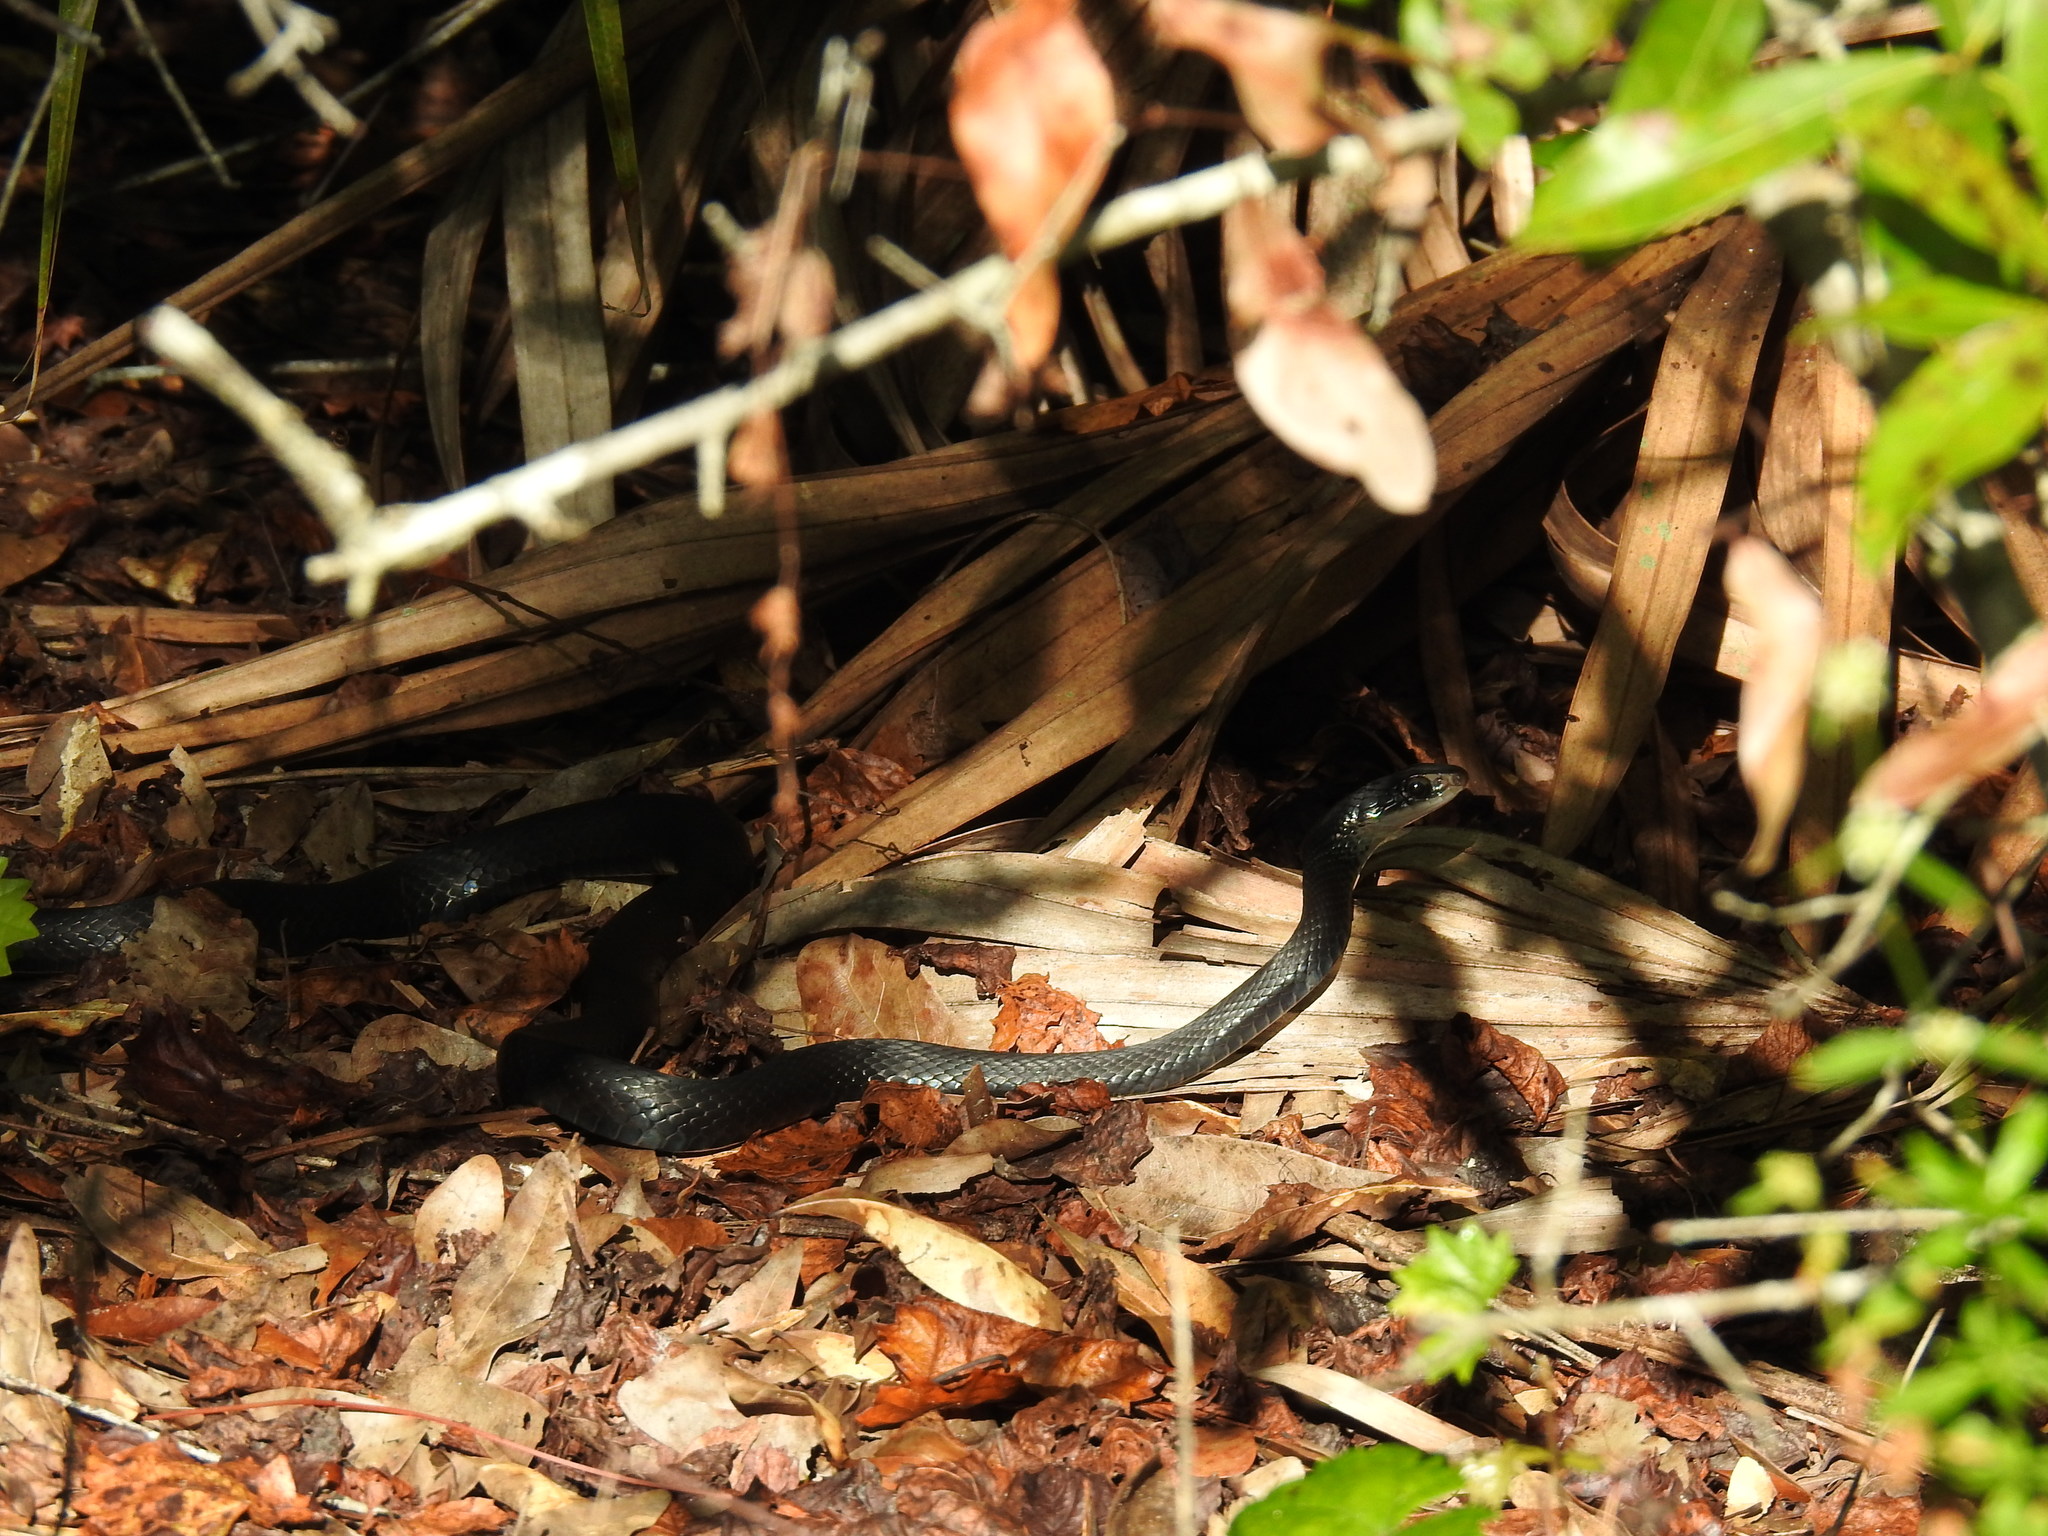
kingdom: Animalia
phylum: Chordata
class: Squamata
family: Colubridae
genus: Coluber
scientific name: Coluber constrictor
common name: Eastern racer
